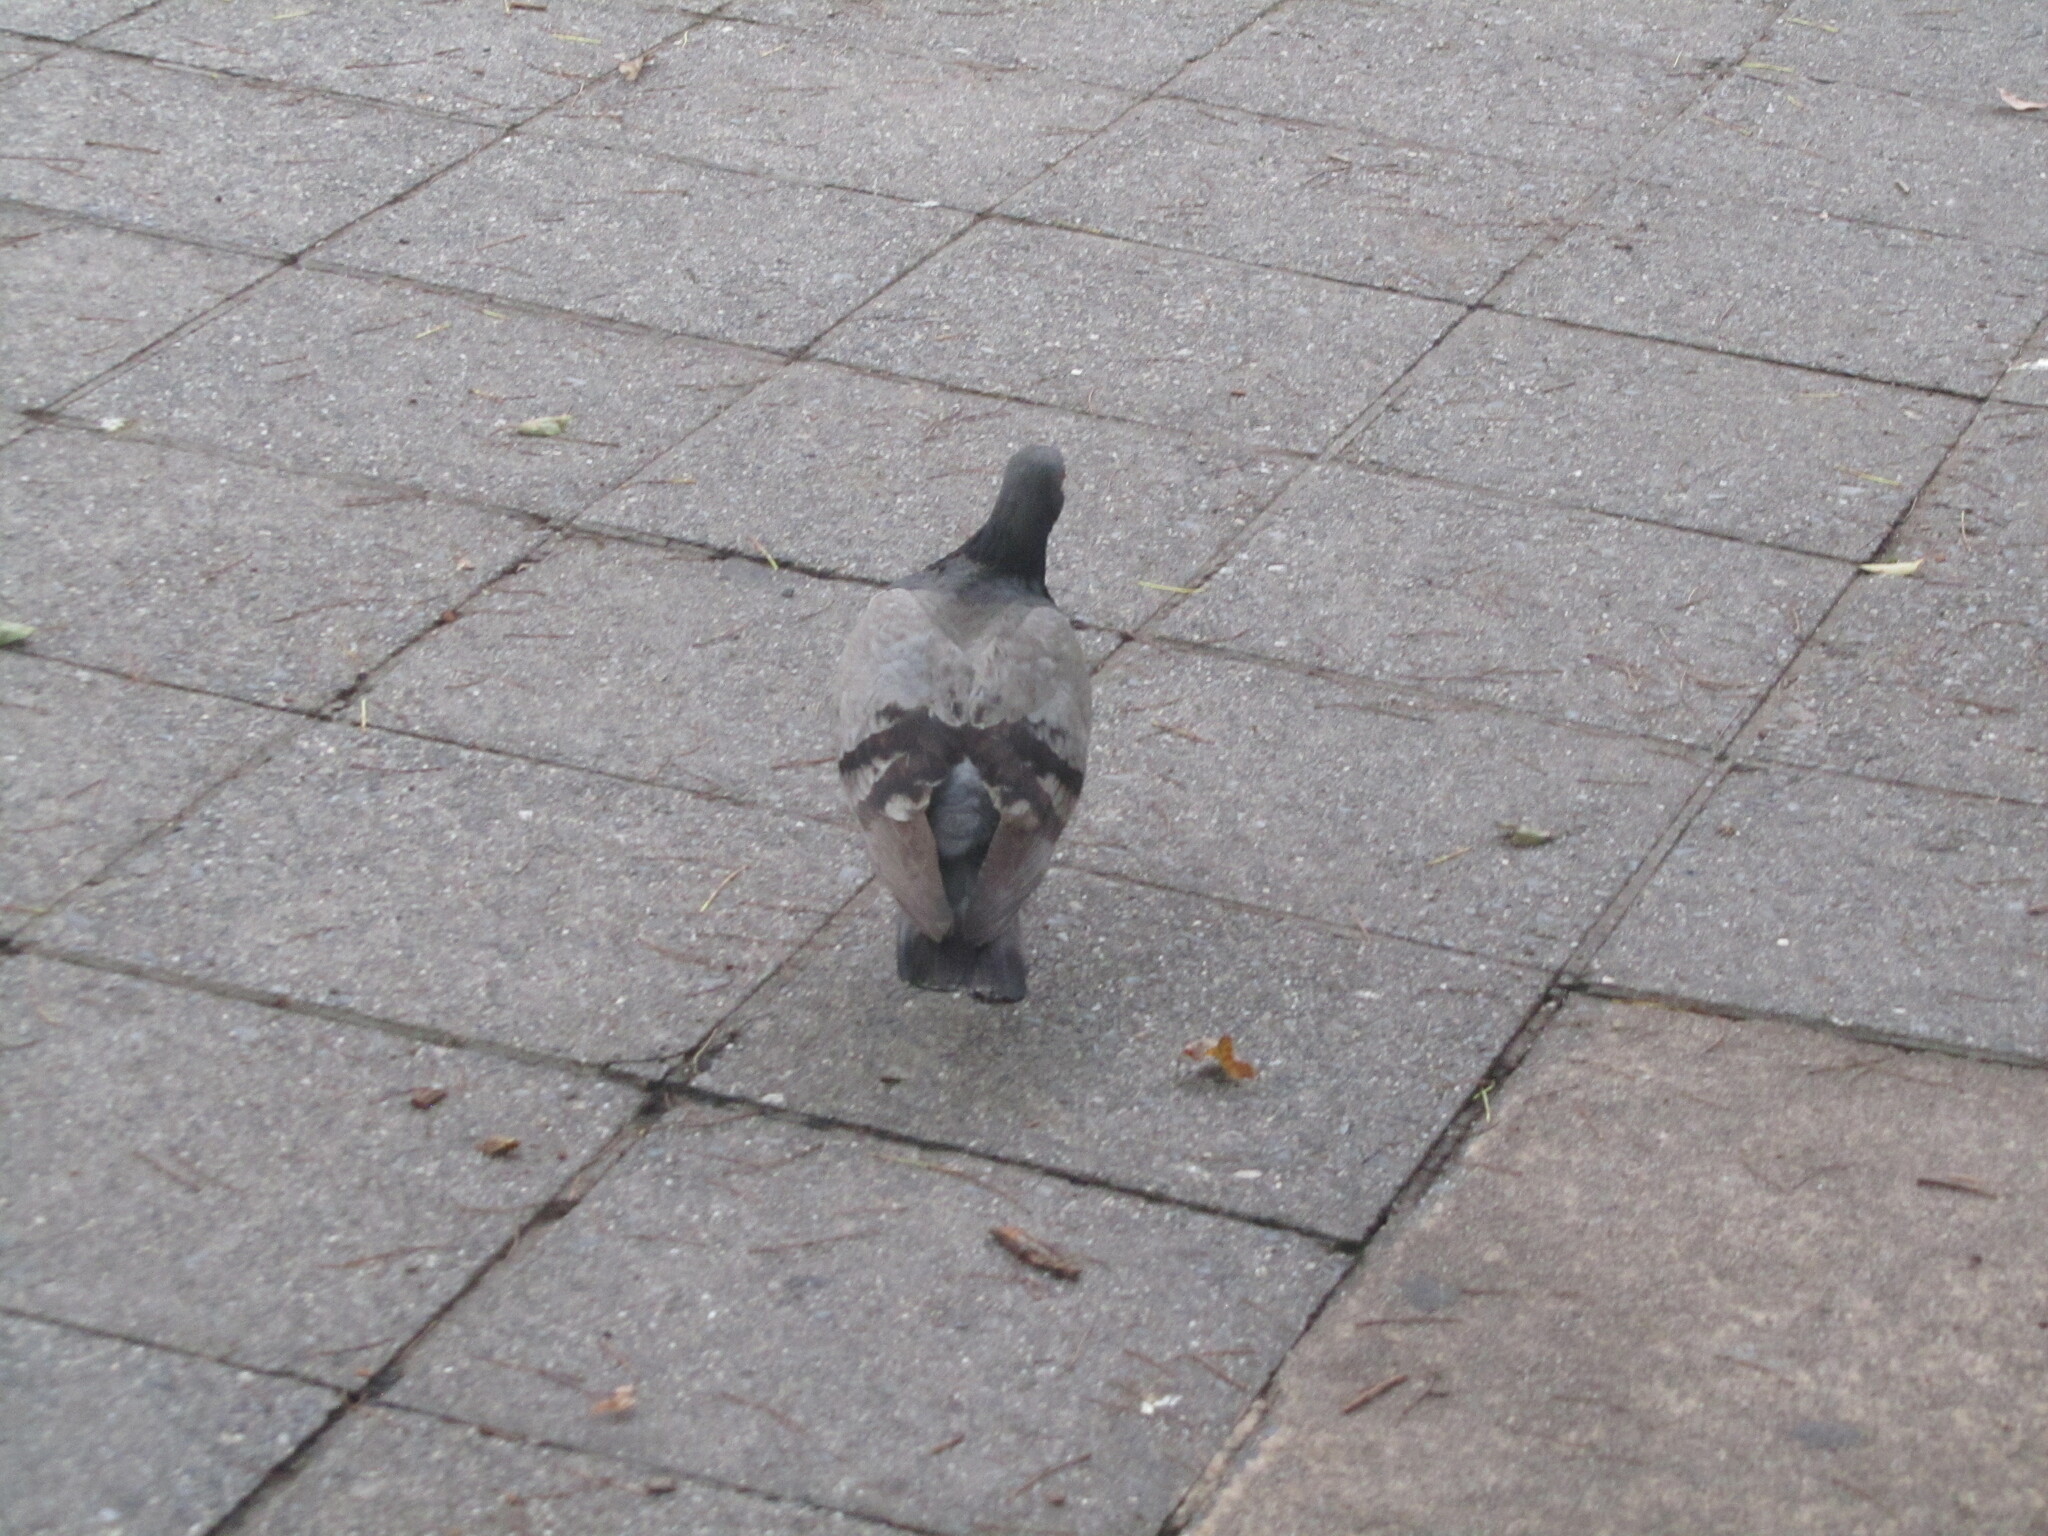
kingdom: Animalia
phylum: Chordata
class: Aves
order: Columbiformes
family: Columbidae
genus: Columba
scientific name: Columba livia
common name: Rock pigeon
